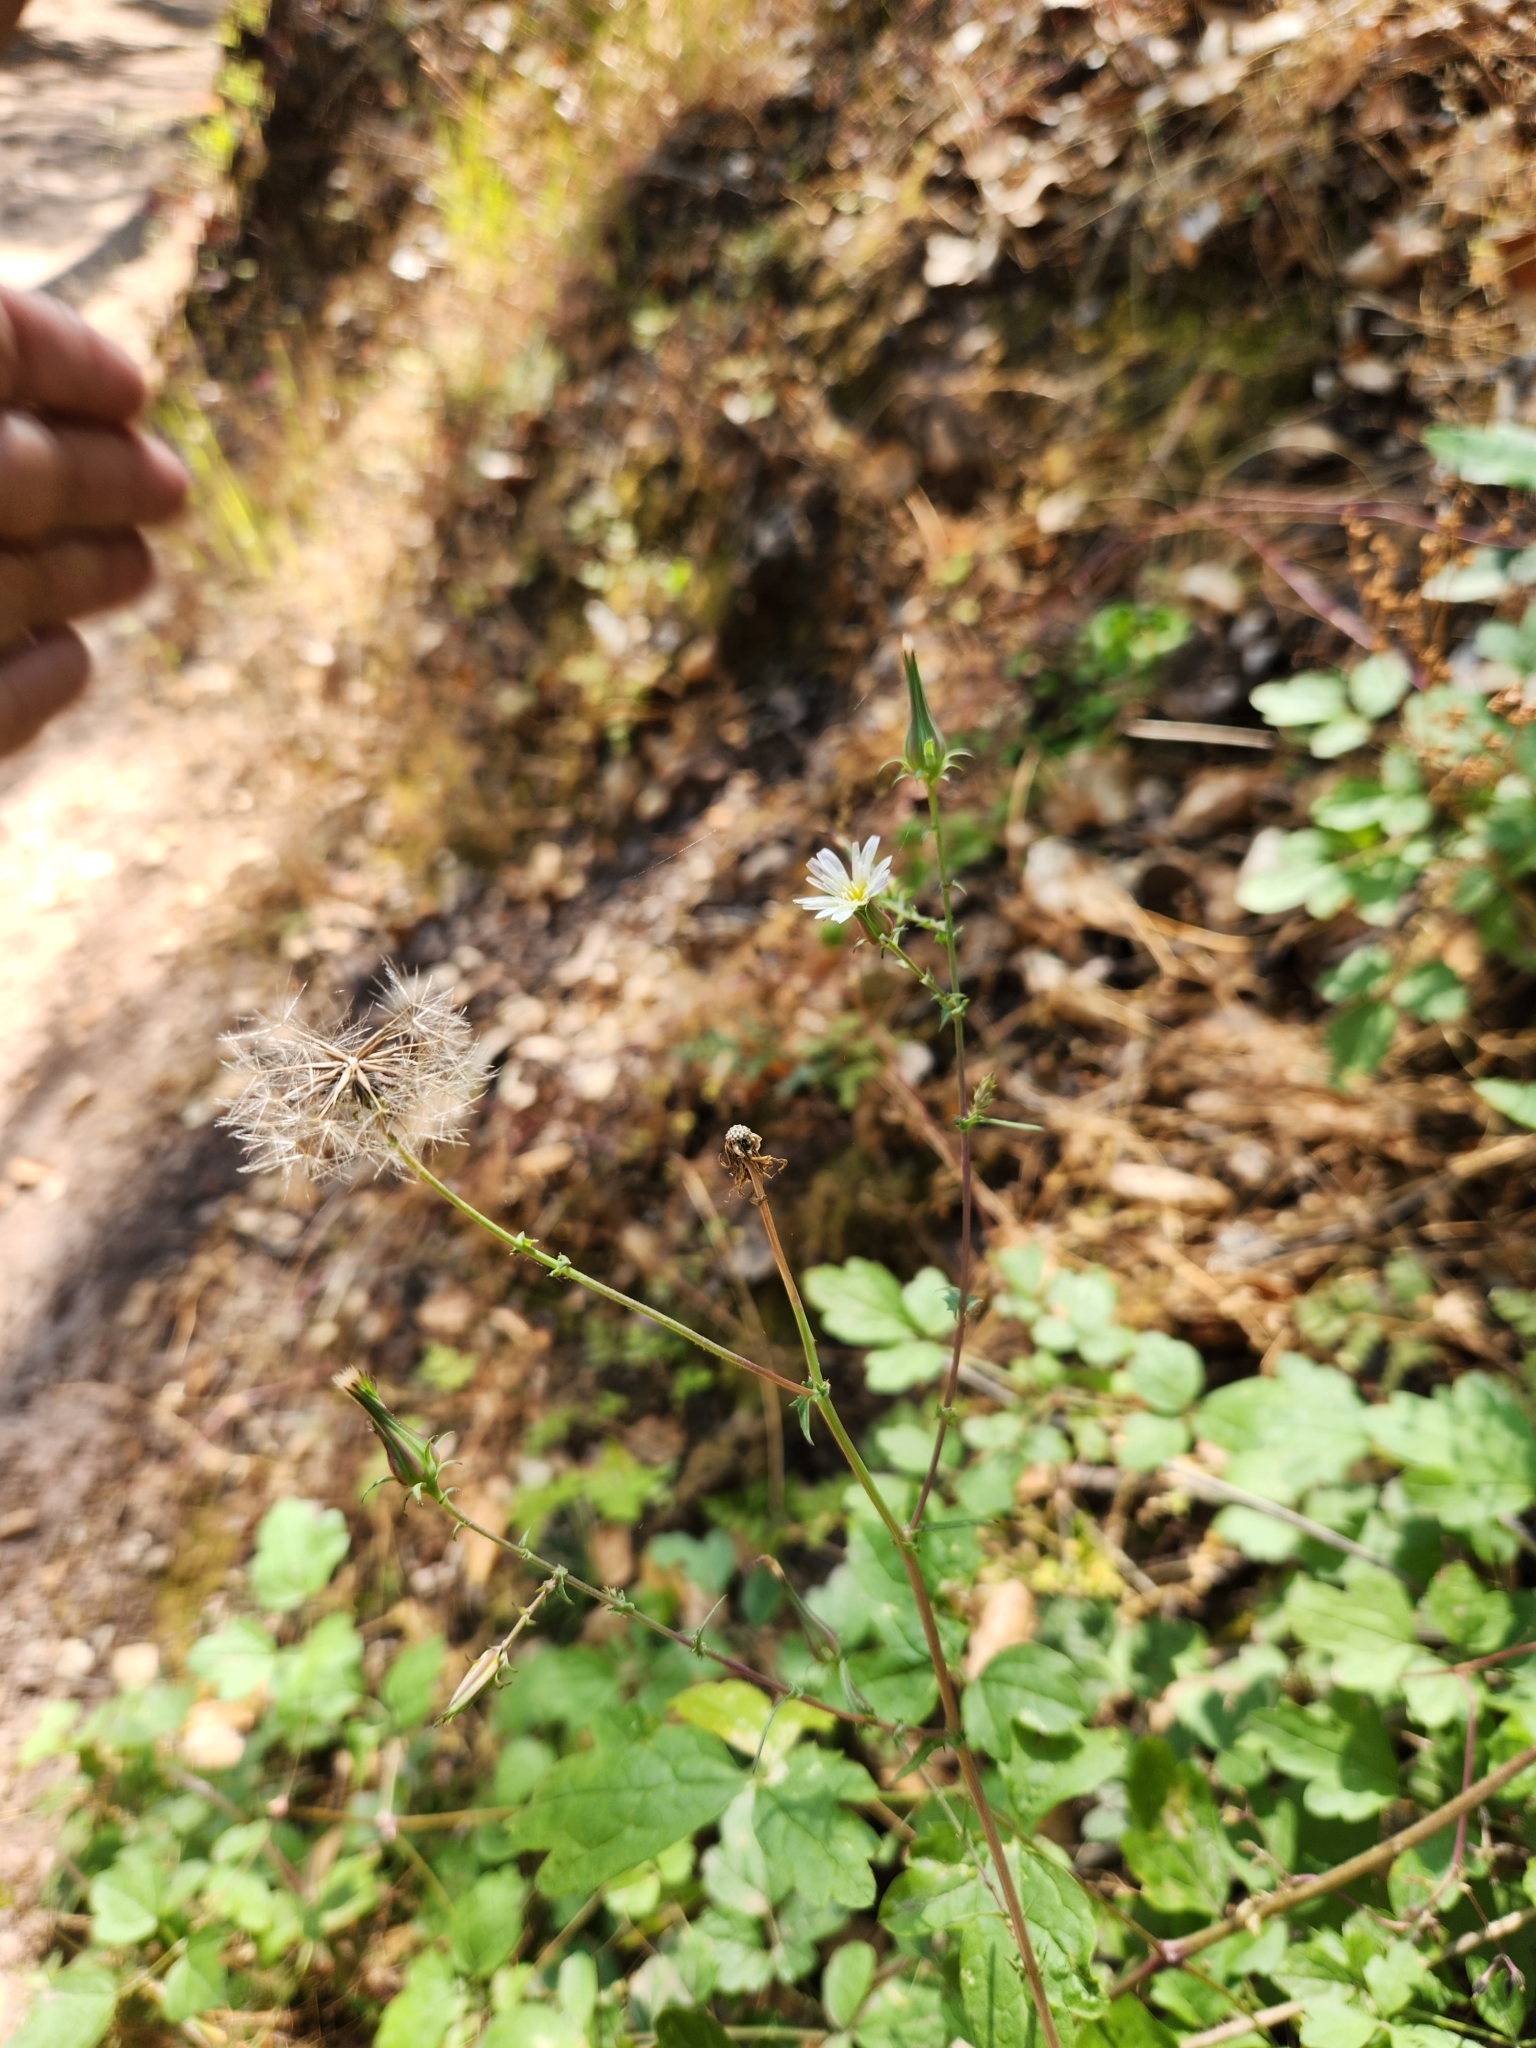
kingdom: Plantae
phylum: Tracheophyta
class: Magnoliopsida
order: Asterales
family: Asteraceae
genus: Rafinesquia
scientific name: Rafinesquia californica
